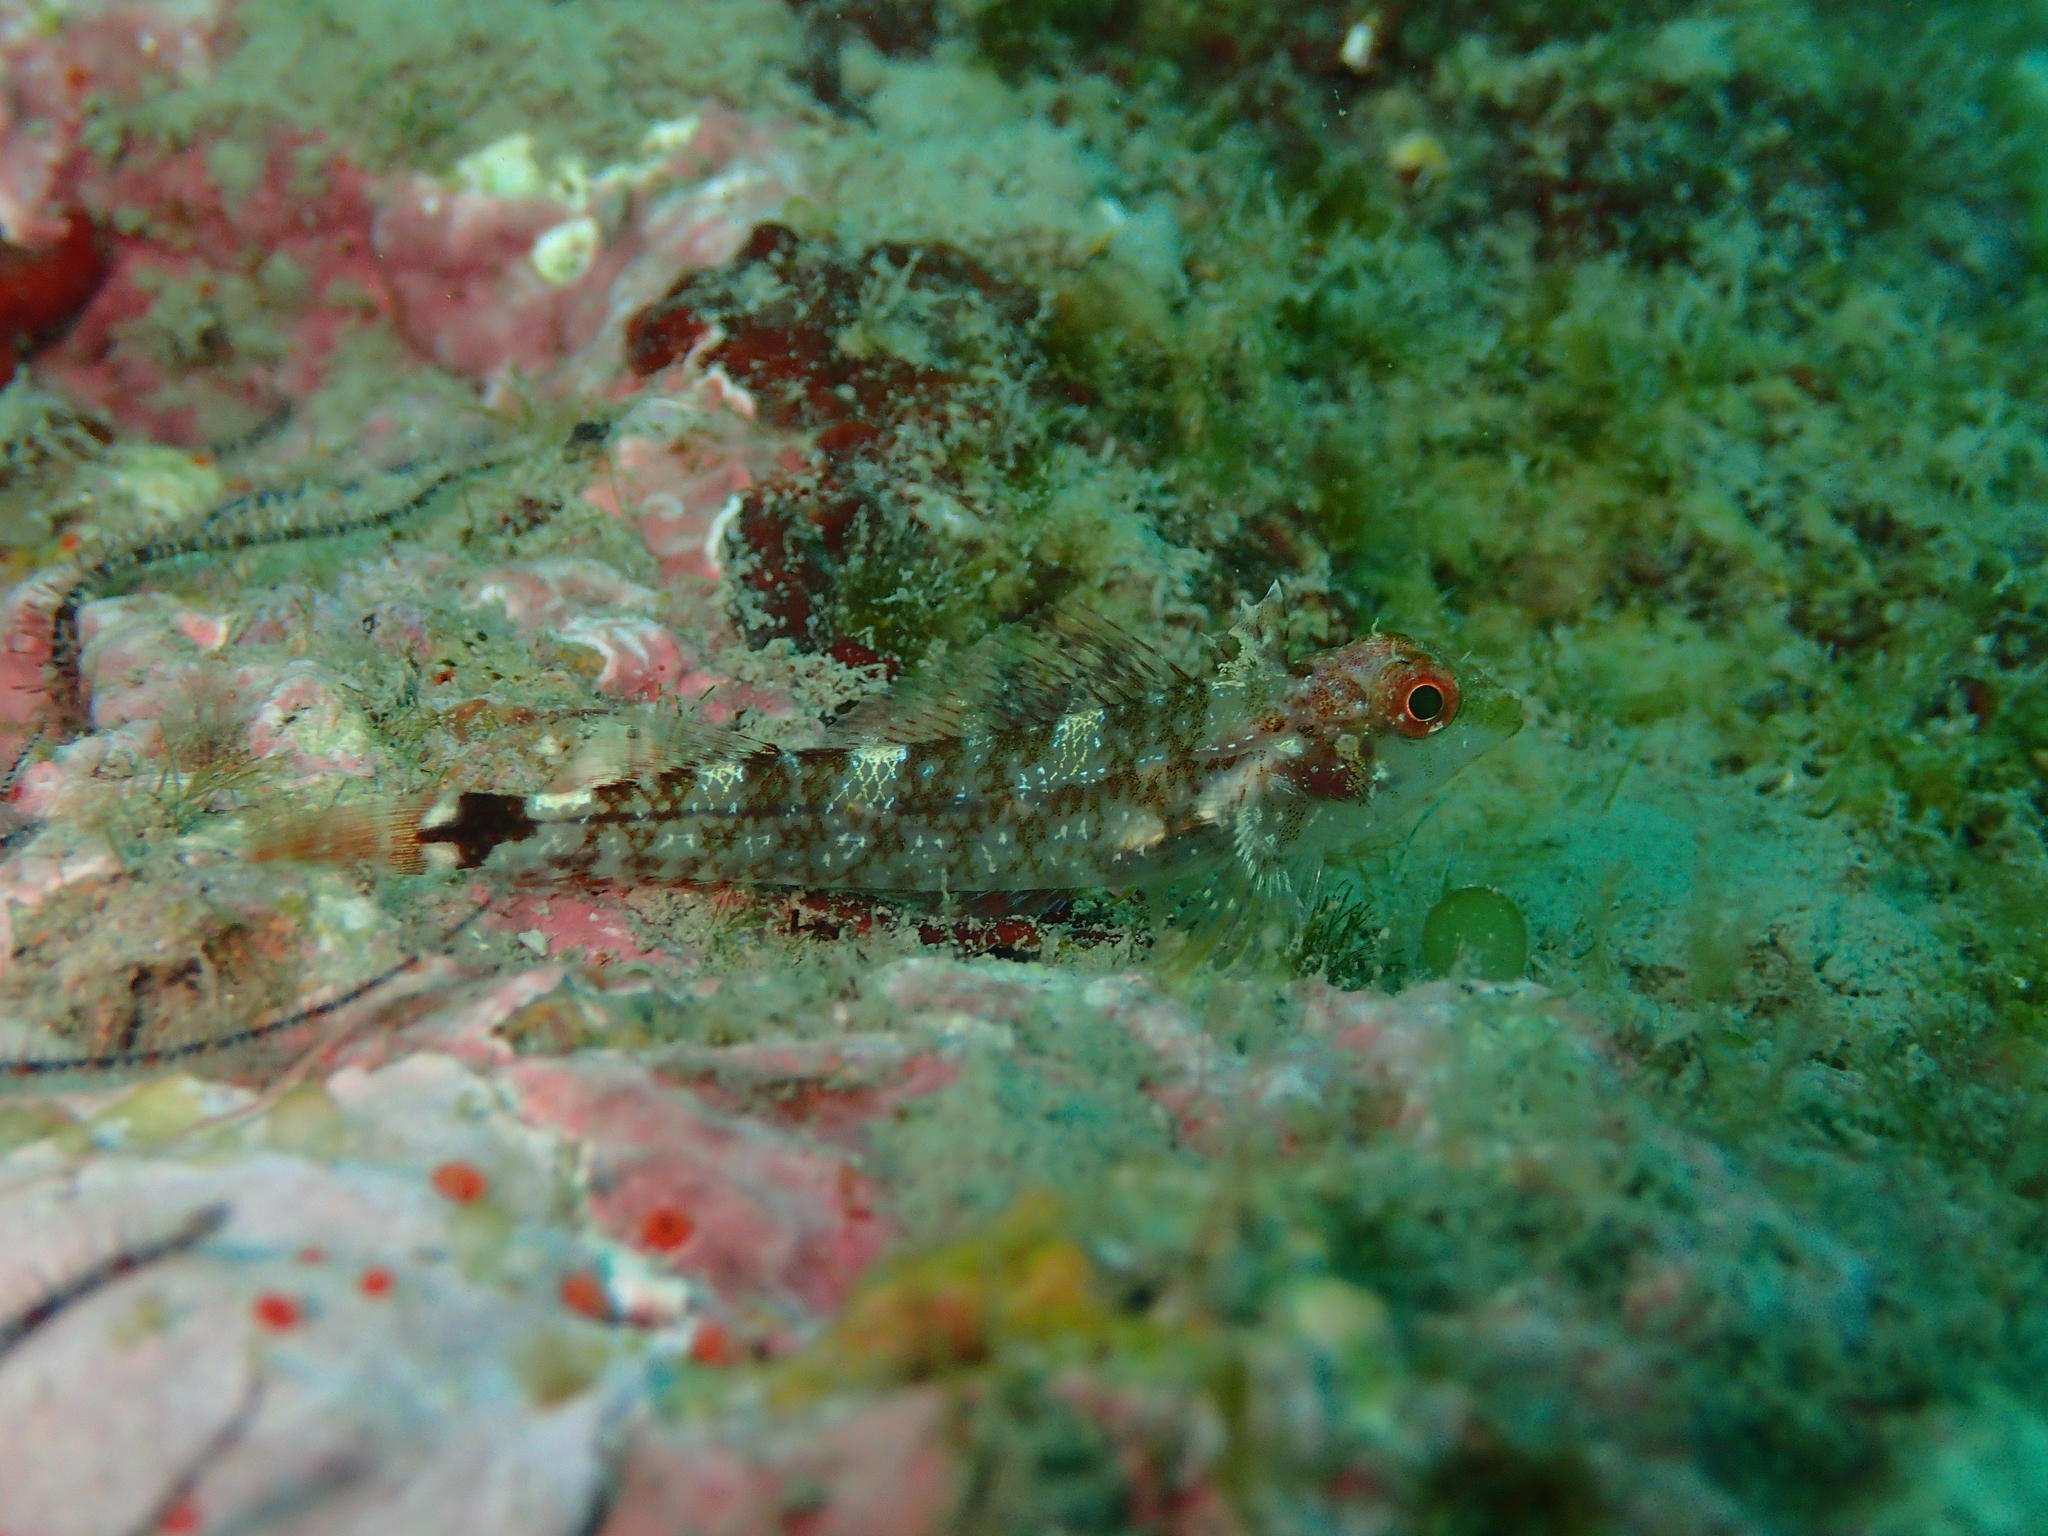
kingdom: Animalia
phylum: Chordata
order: Perciformes
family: Tripterygiidae
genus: Tripterygion
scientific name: Tripterygion delaisi
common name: Black-face blenny
